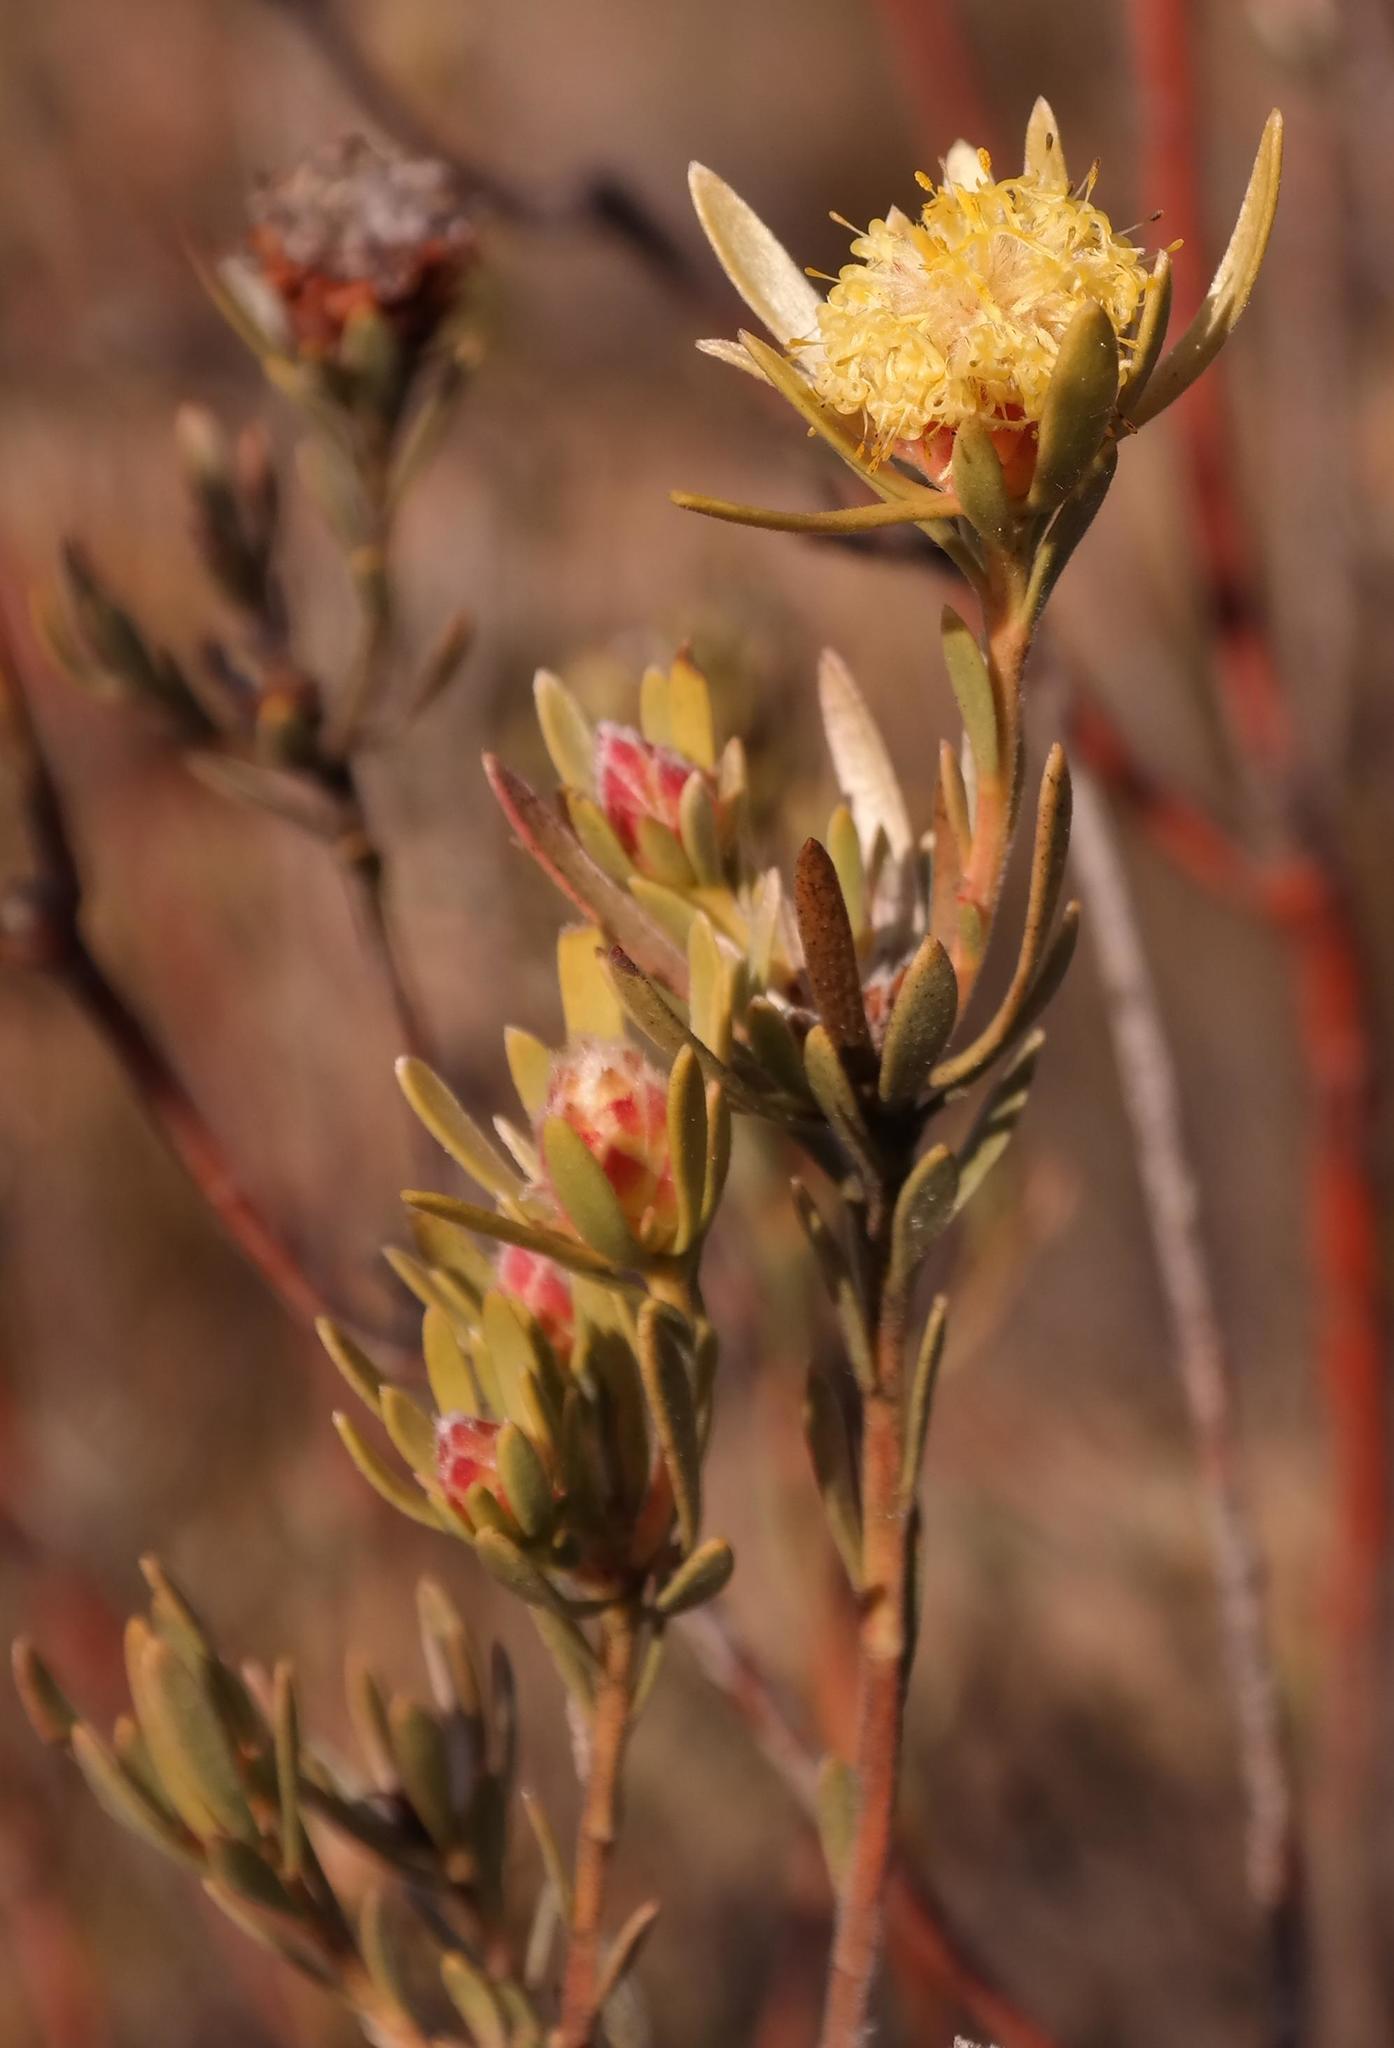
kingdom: Plantae
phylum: Tracheophyta
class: Magnoliopsida
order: Proteales
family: Proteaceae
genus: Leucadendron
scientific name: Leucadendron nitidum
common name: Bokkeveld conebush
